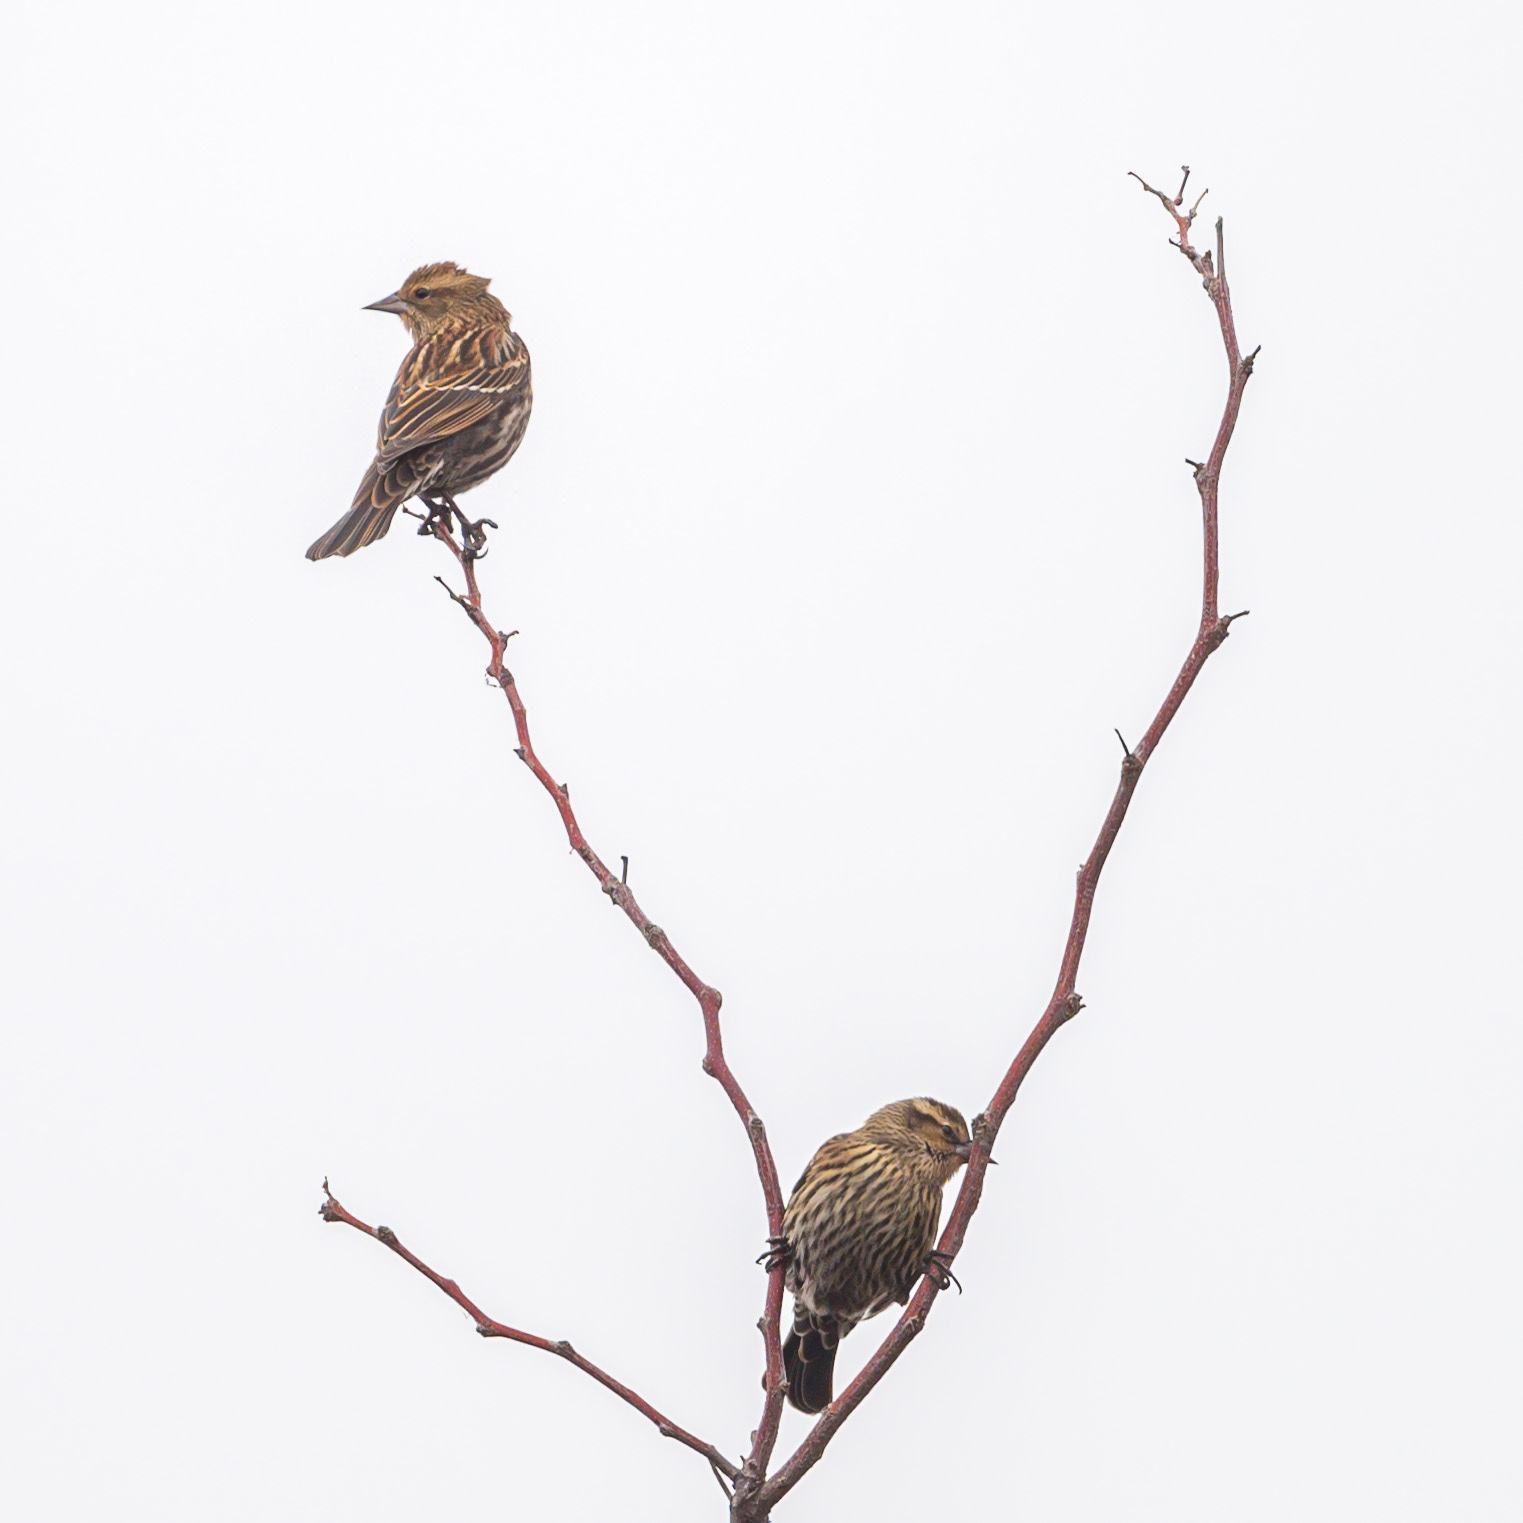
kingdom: Animalia
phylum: Chordata
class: Aves
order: Passeriformes
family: Icteridae
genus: Agelaius
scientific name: Agelaius phoeniceus
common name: Red-winged blackbird
